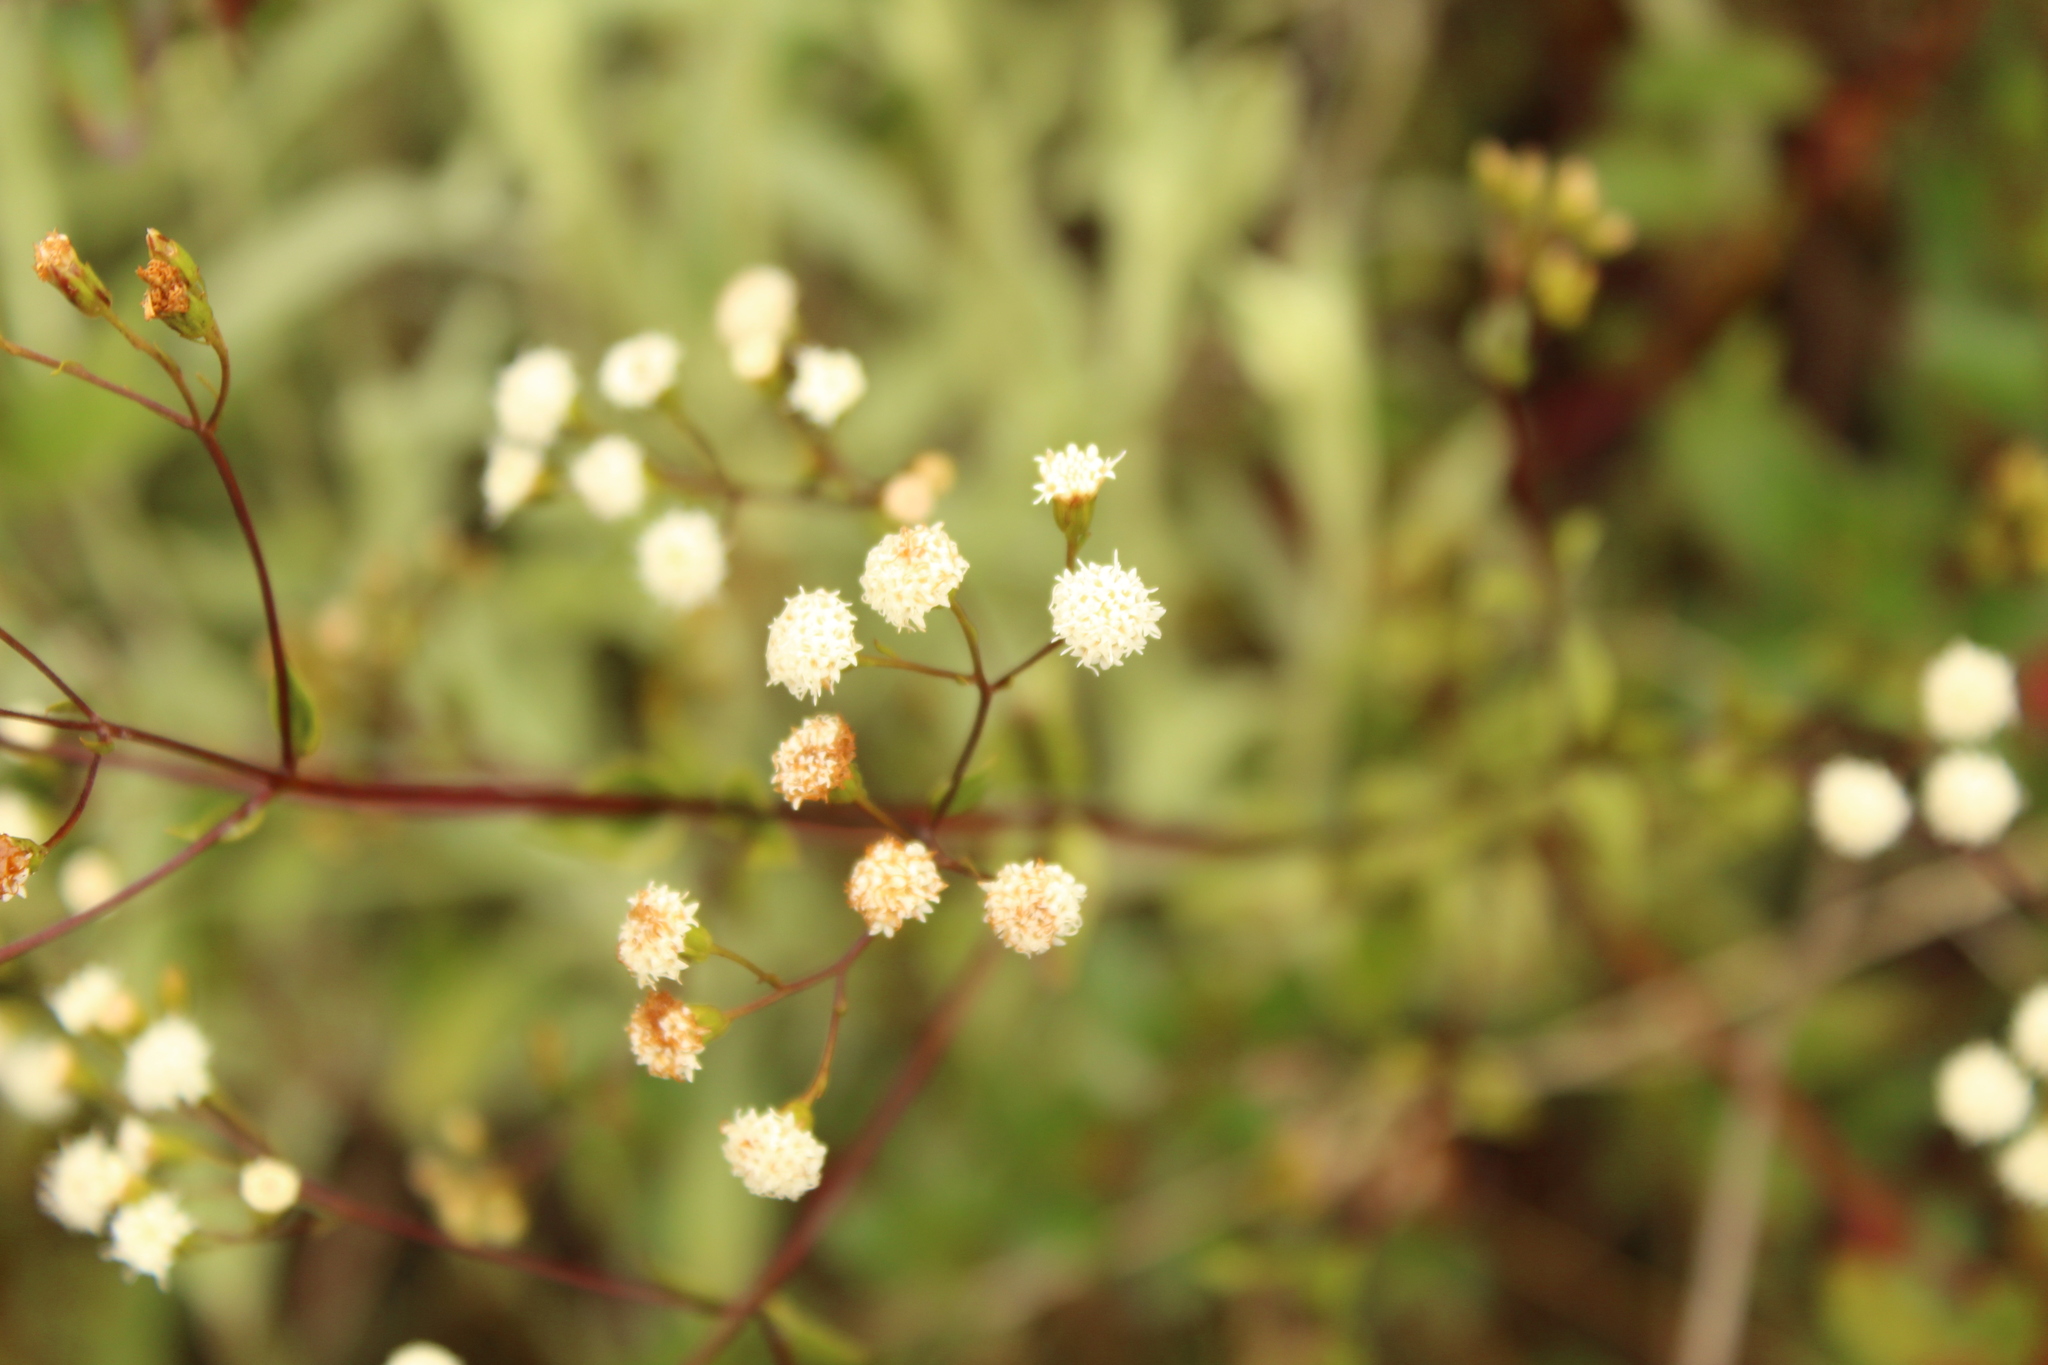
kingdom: Plantae
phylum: Tracheophyta
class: Magnoliopsida
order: Asterales
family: Asteraceae
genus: Ageratina
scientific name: Ageratina gracilis
